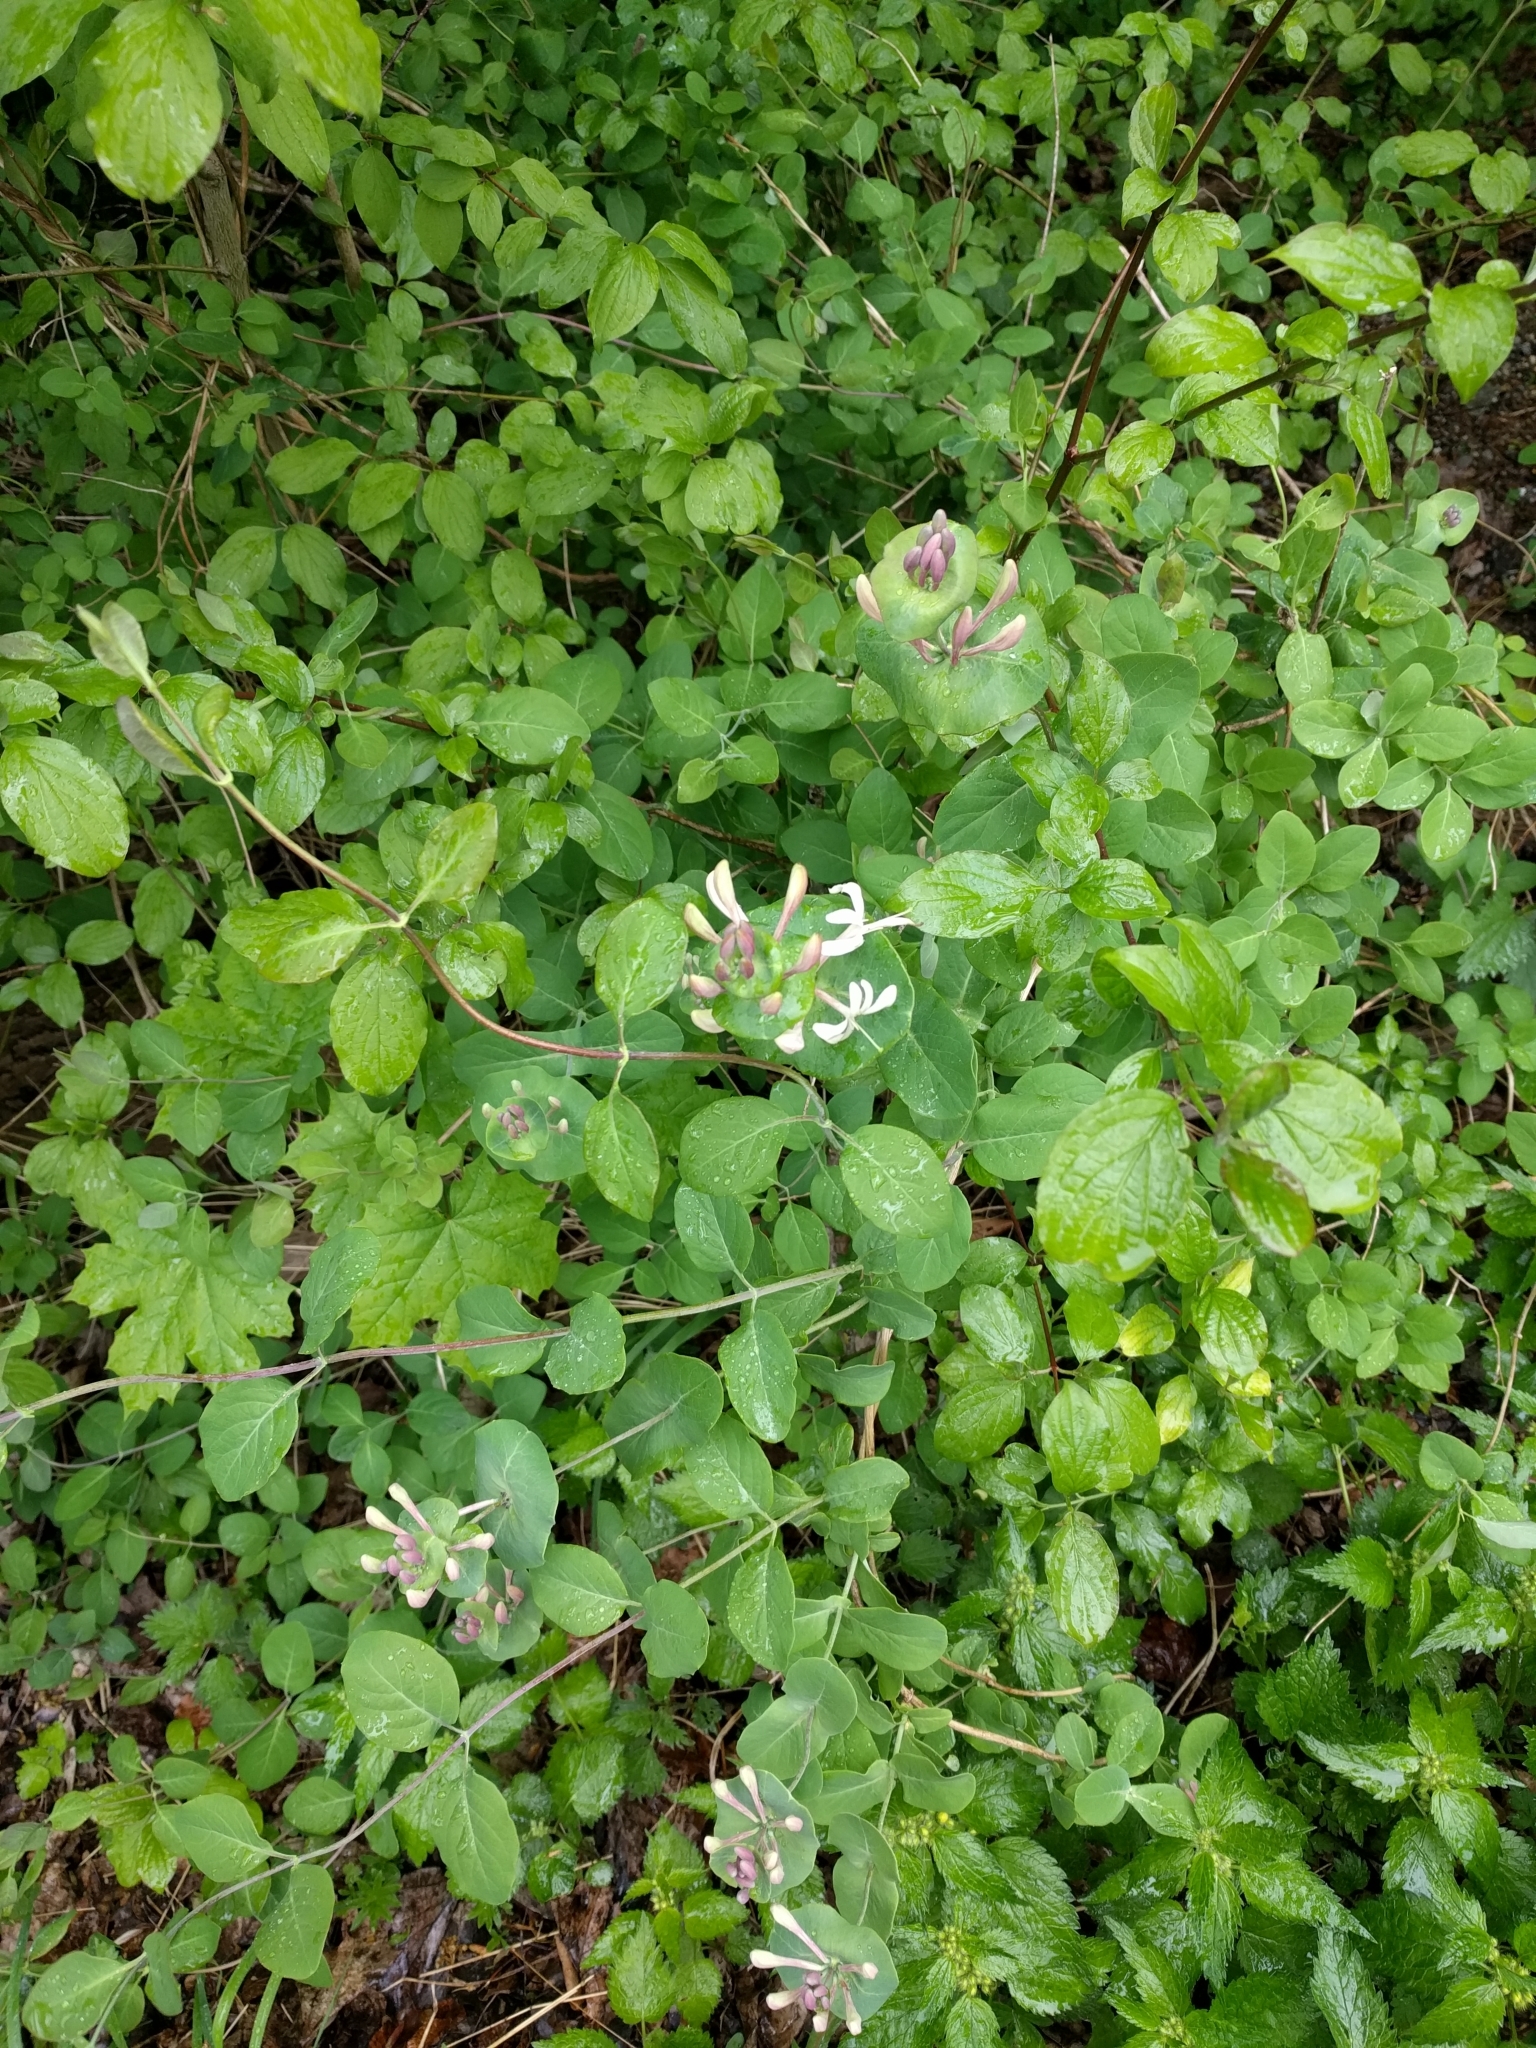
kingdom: Plantae
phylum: Tracheophyta
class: Magnoliopsida
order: Dipsacales
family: Caprifoliaceae
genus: Lonicera
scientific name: Lonicera caprifolium
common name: Perfoliate honeysuckle
